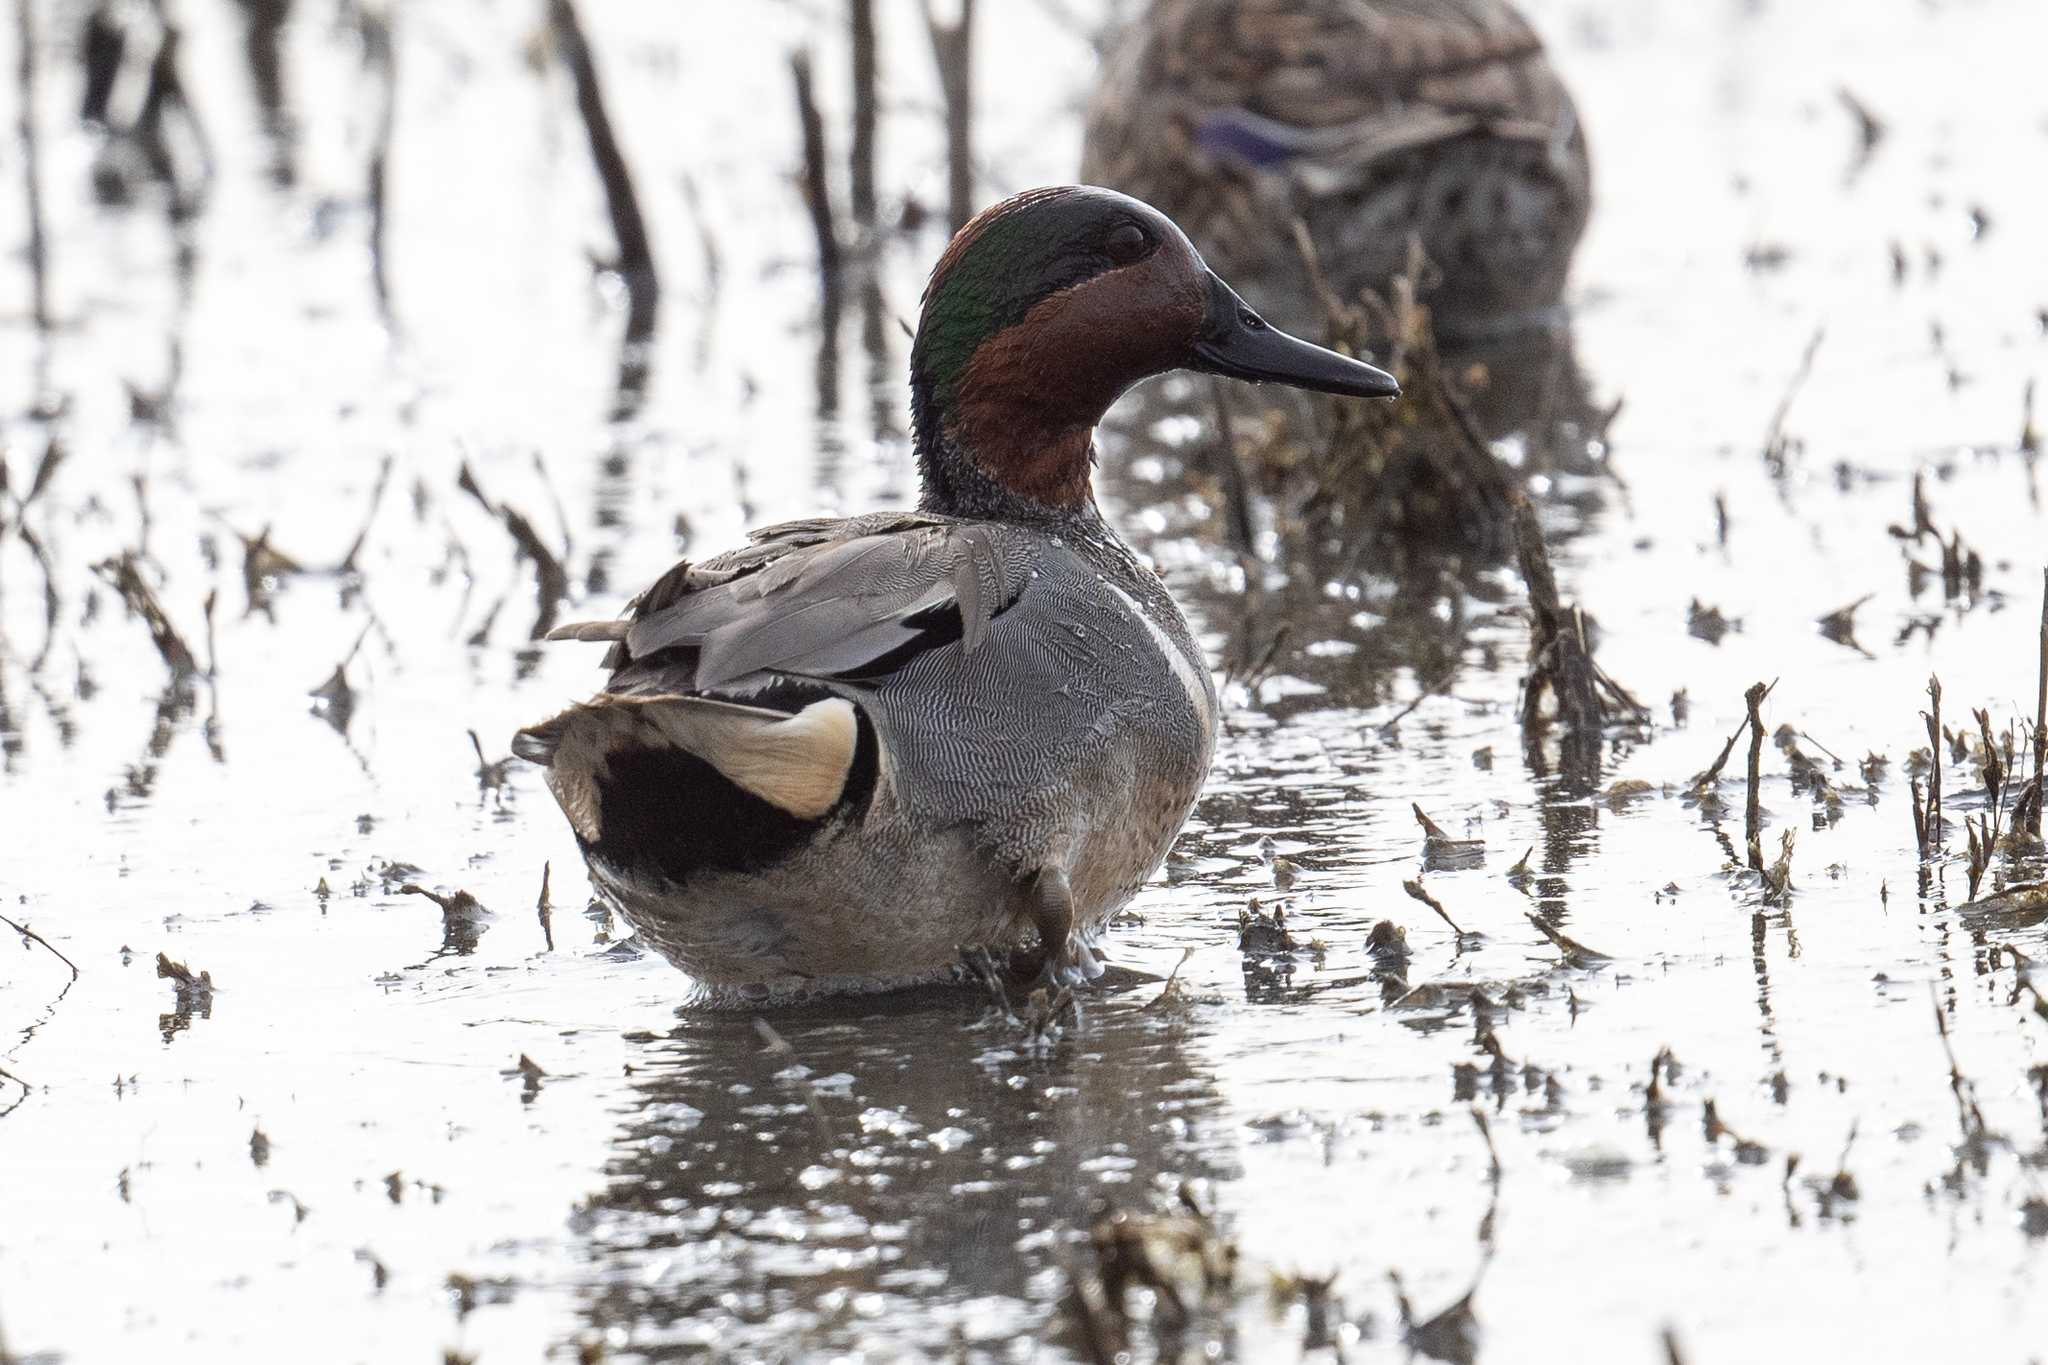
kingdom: Animalia
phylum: Chordata
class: Aves
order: Anseriformes
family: Anatidae
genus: Anas
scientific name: Anas crecca
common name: Eurasian teal
